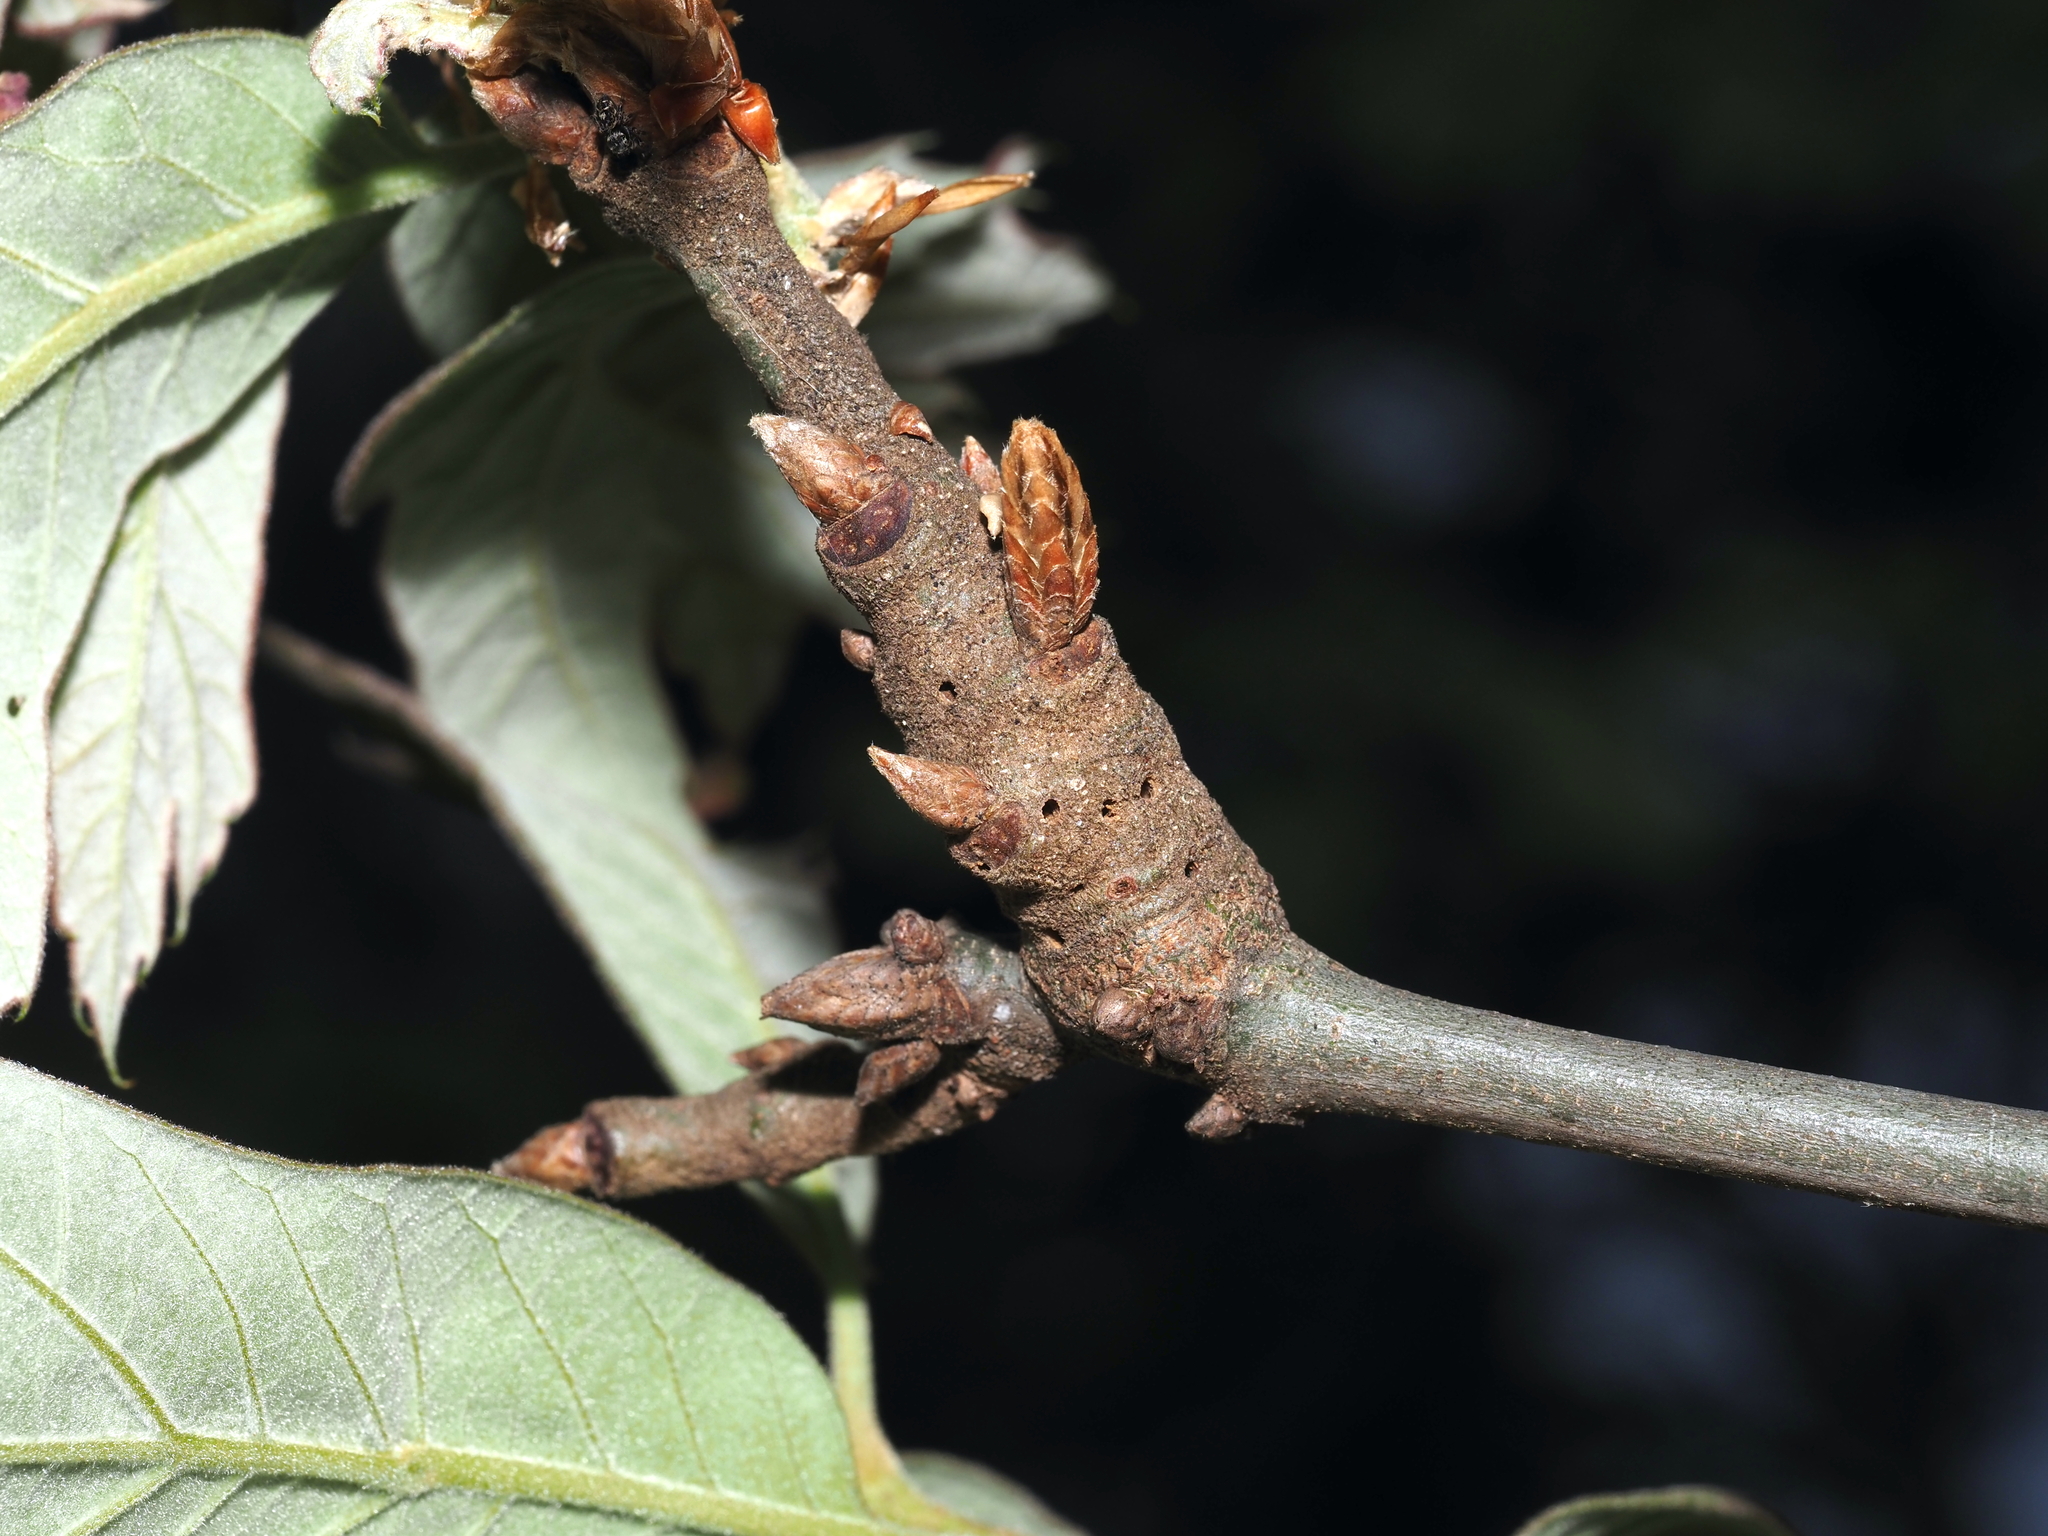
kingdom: Animalia
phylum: Arthropoda
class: Insecta
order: Hymenoptera
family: Cynipidae
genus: Callirhytis
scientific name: Callirhytis
